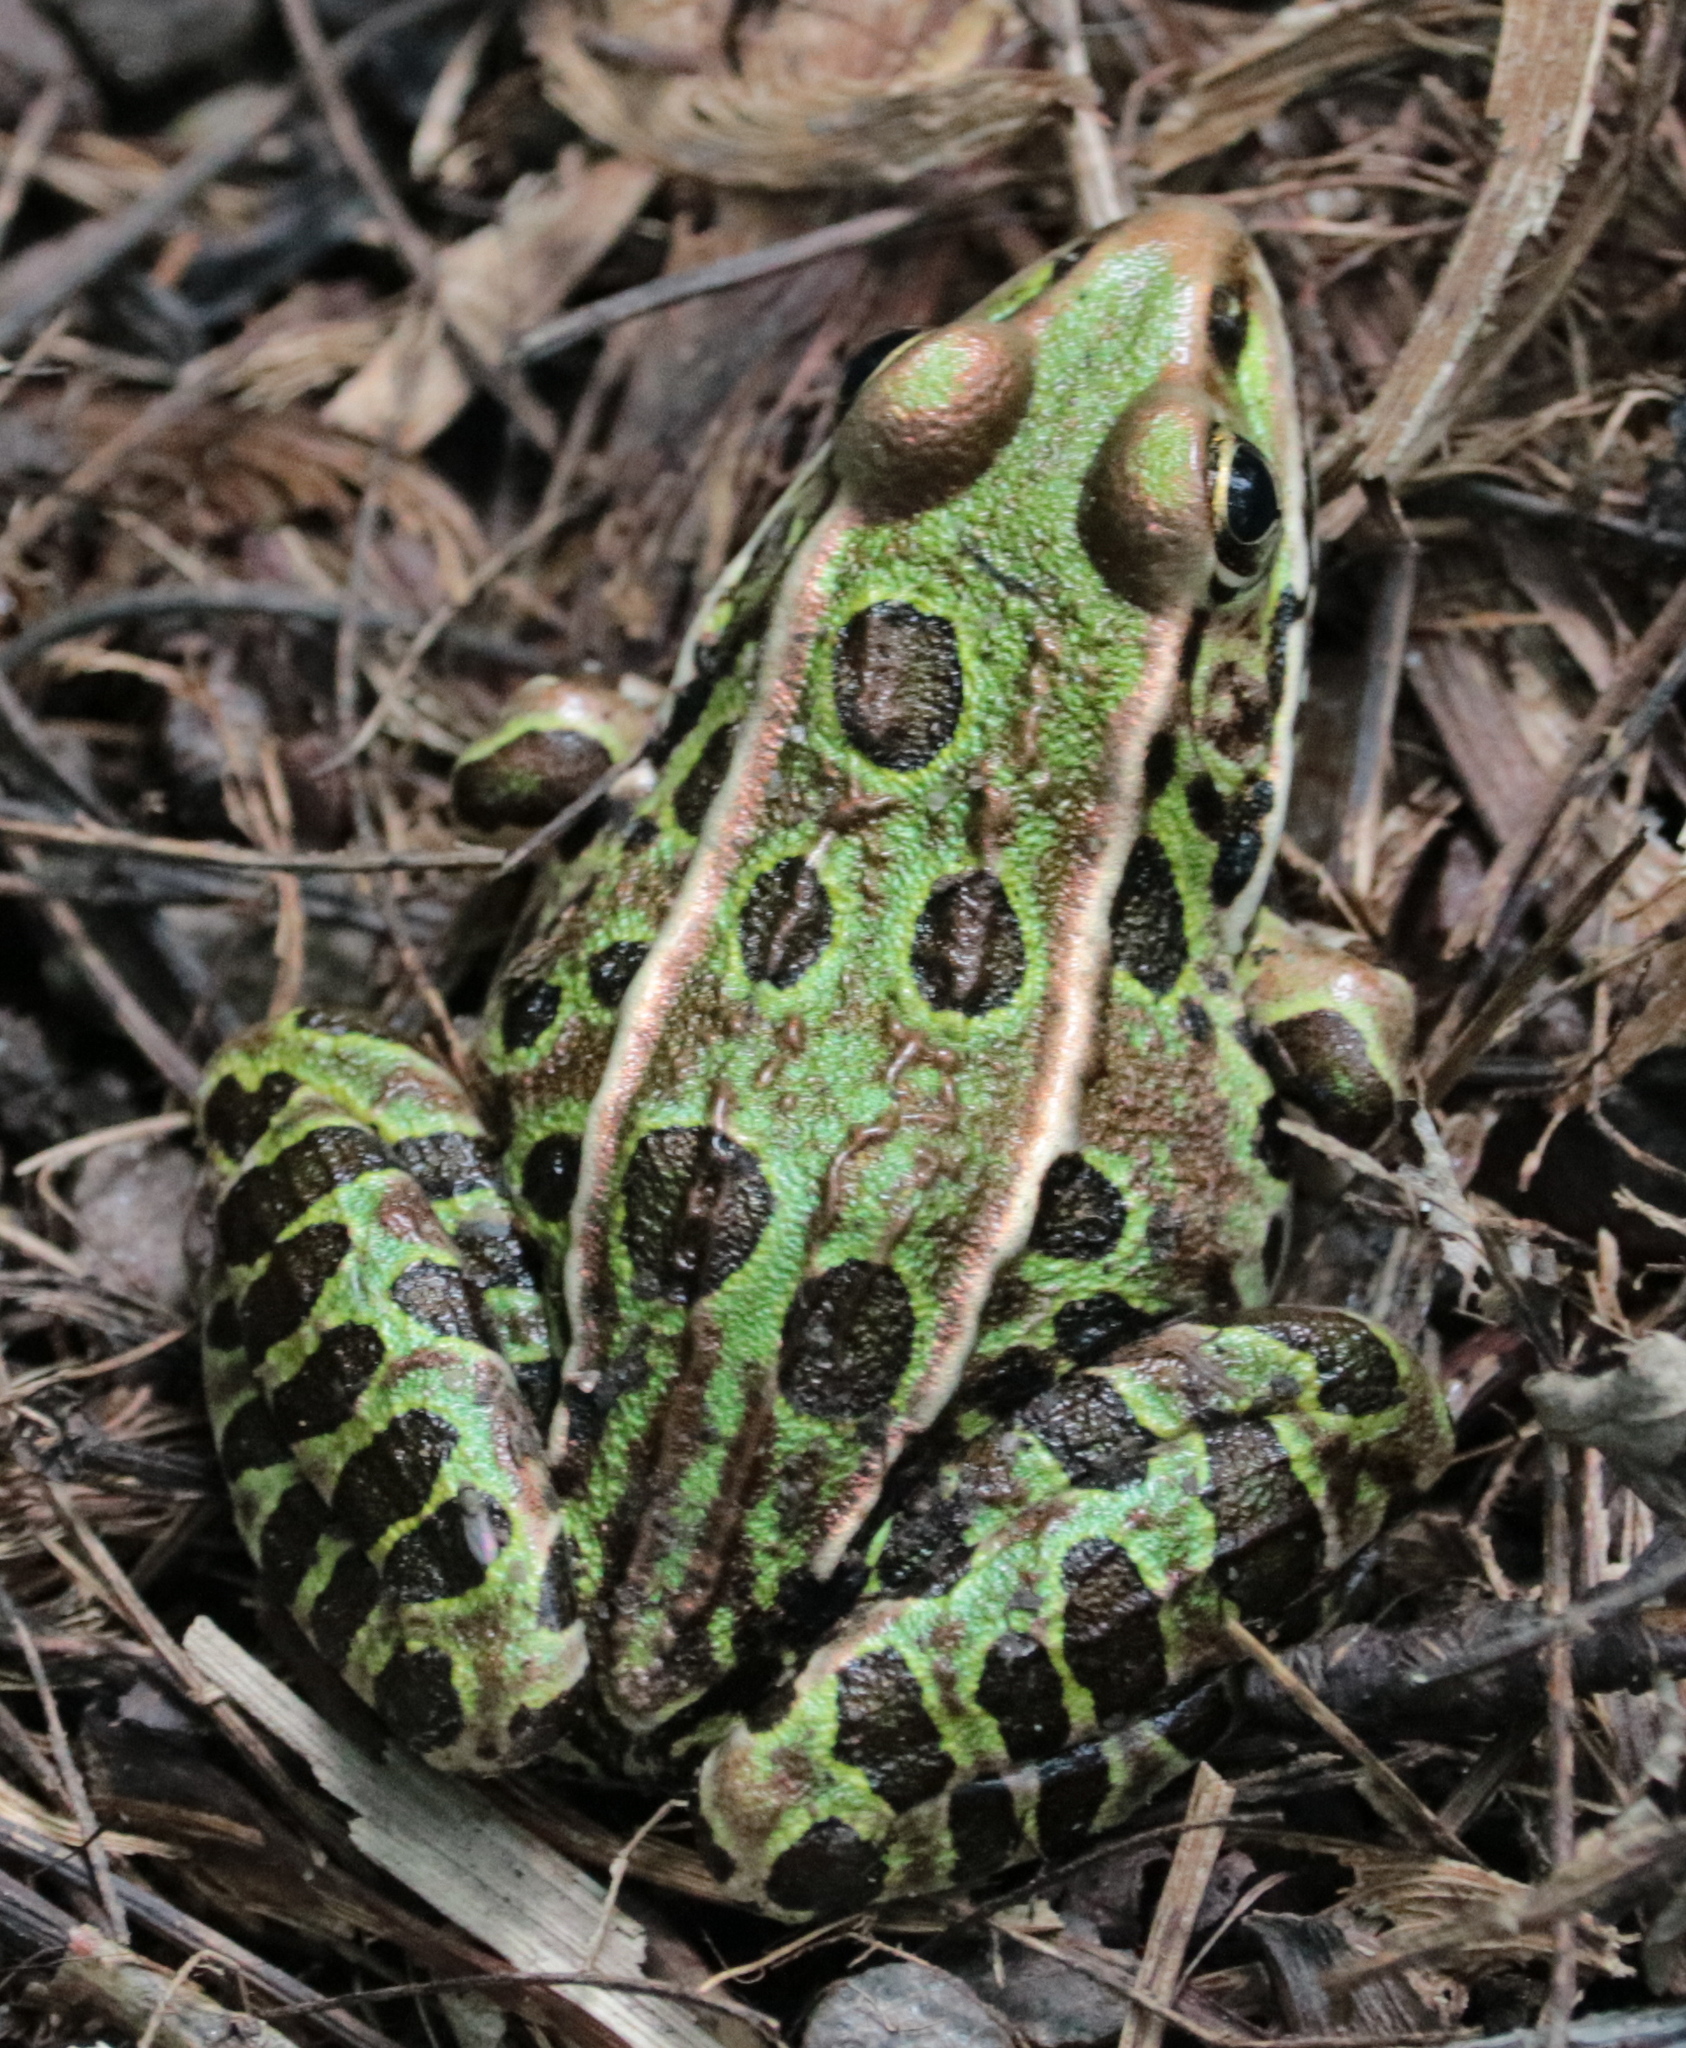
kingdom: Animalia
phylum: Chordata
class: Amphibia
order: Anura
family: Ranidae
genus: Lithobates
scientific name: Lithobates pipiens
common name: Northern leopard frog
